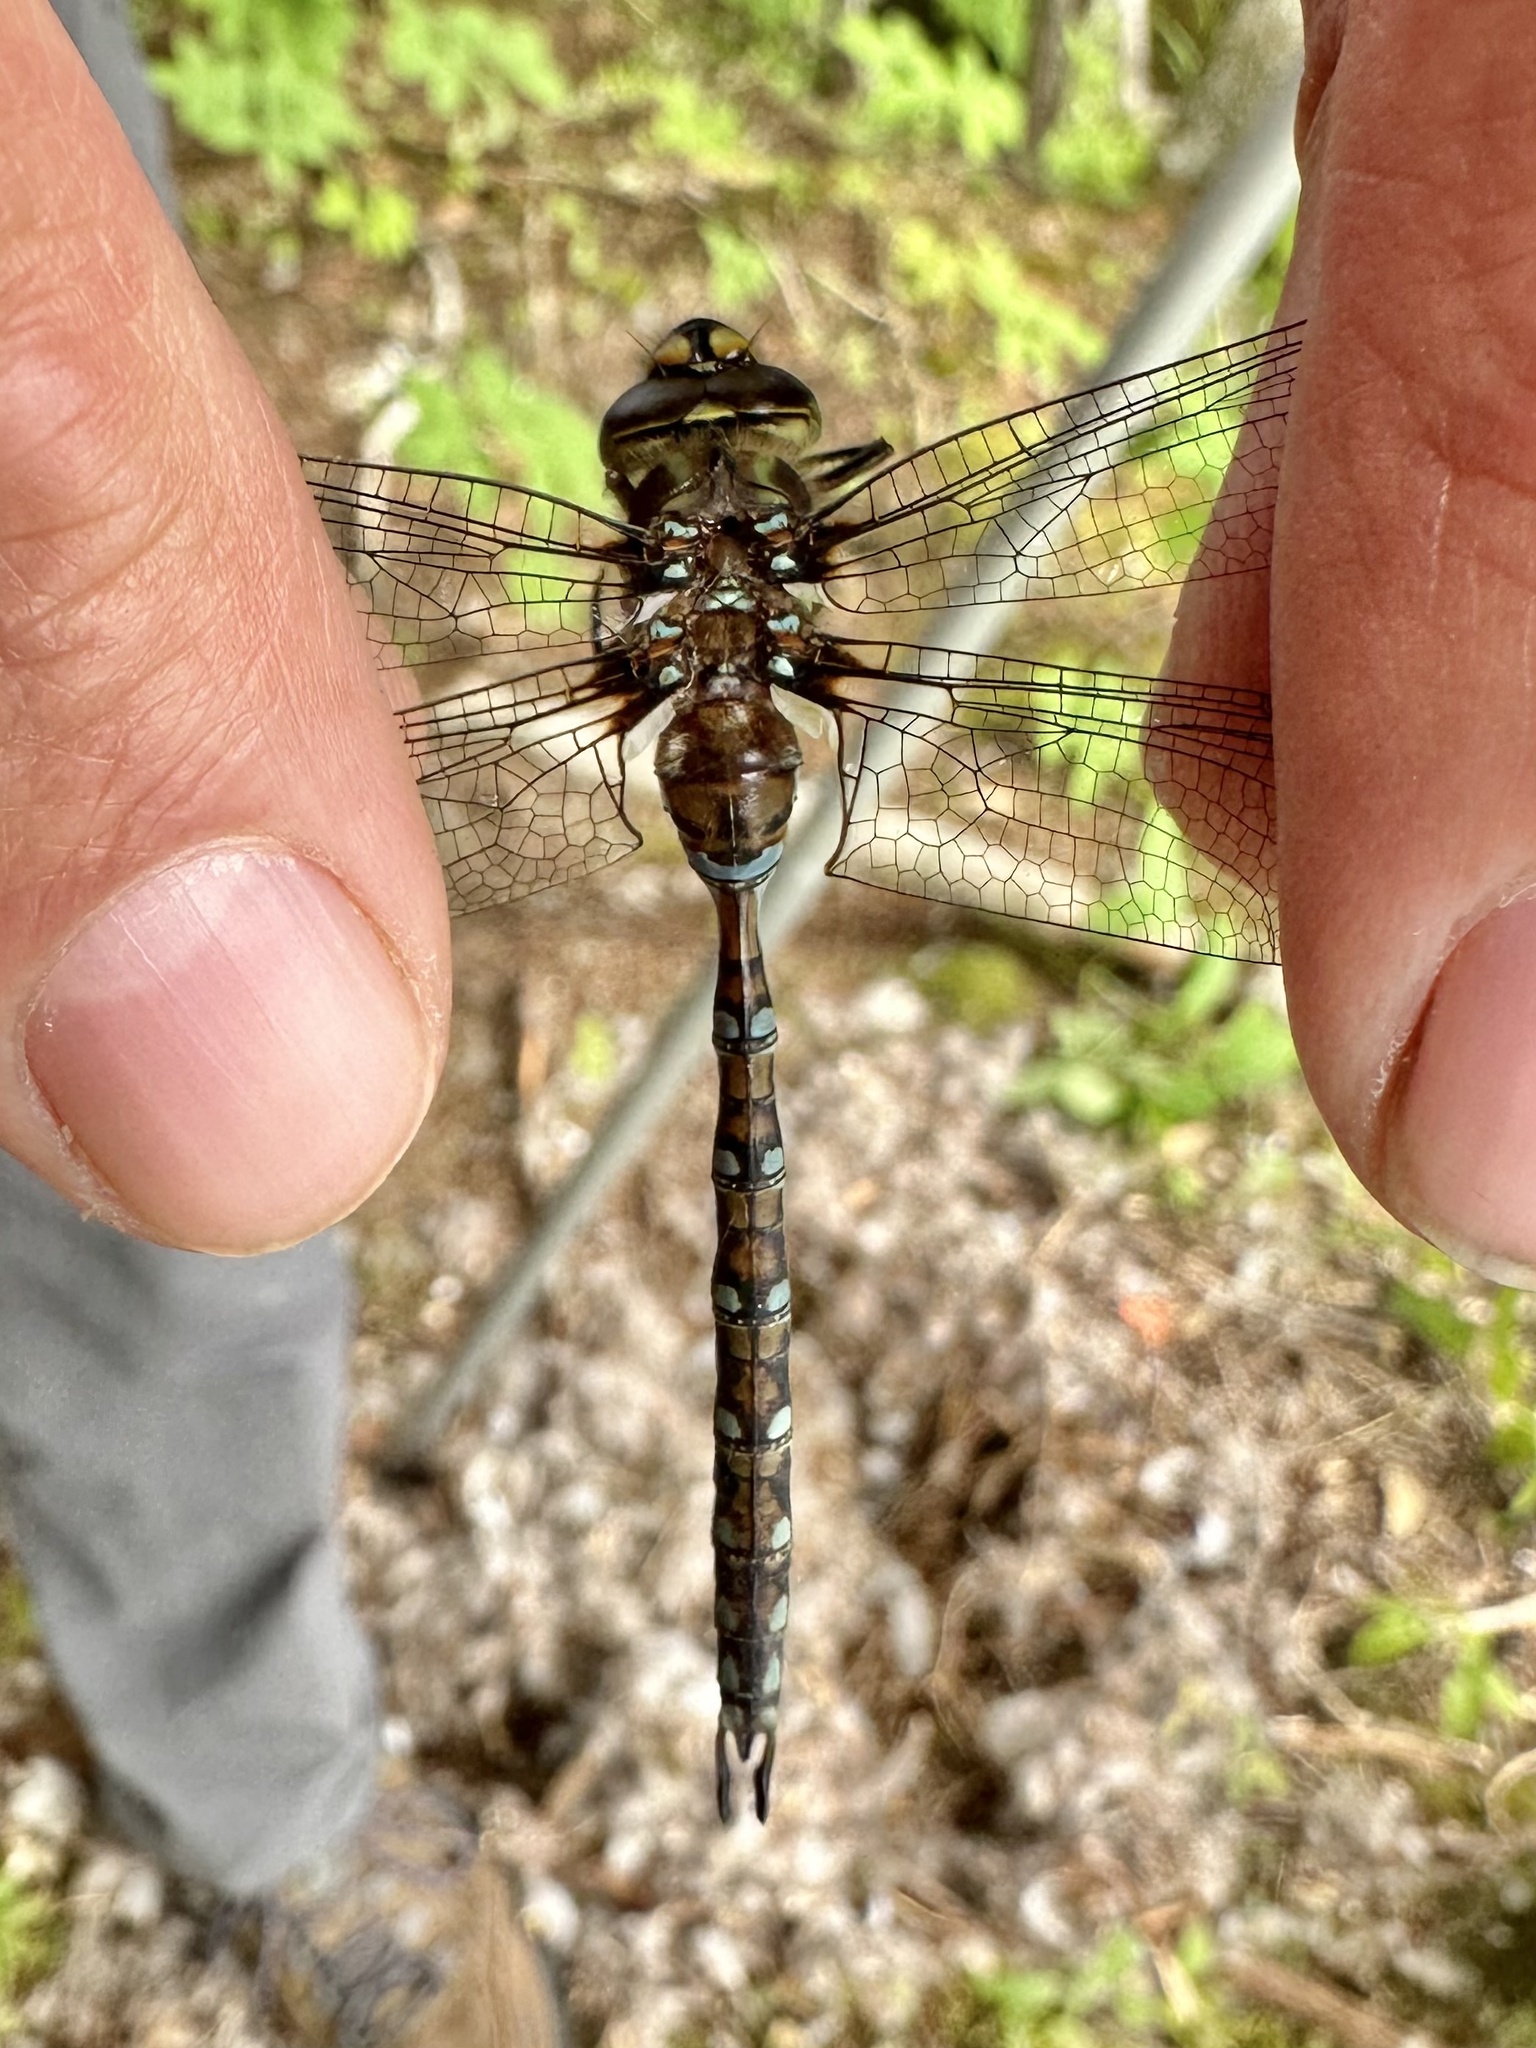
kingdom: Animalia
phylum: Arthropoda
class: Insecta
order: Odonata
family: Aeshnidae
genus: Basiaeschna
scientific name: Basiaeschna janata
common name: Springtime darner
